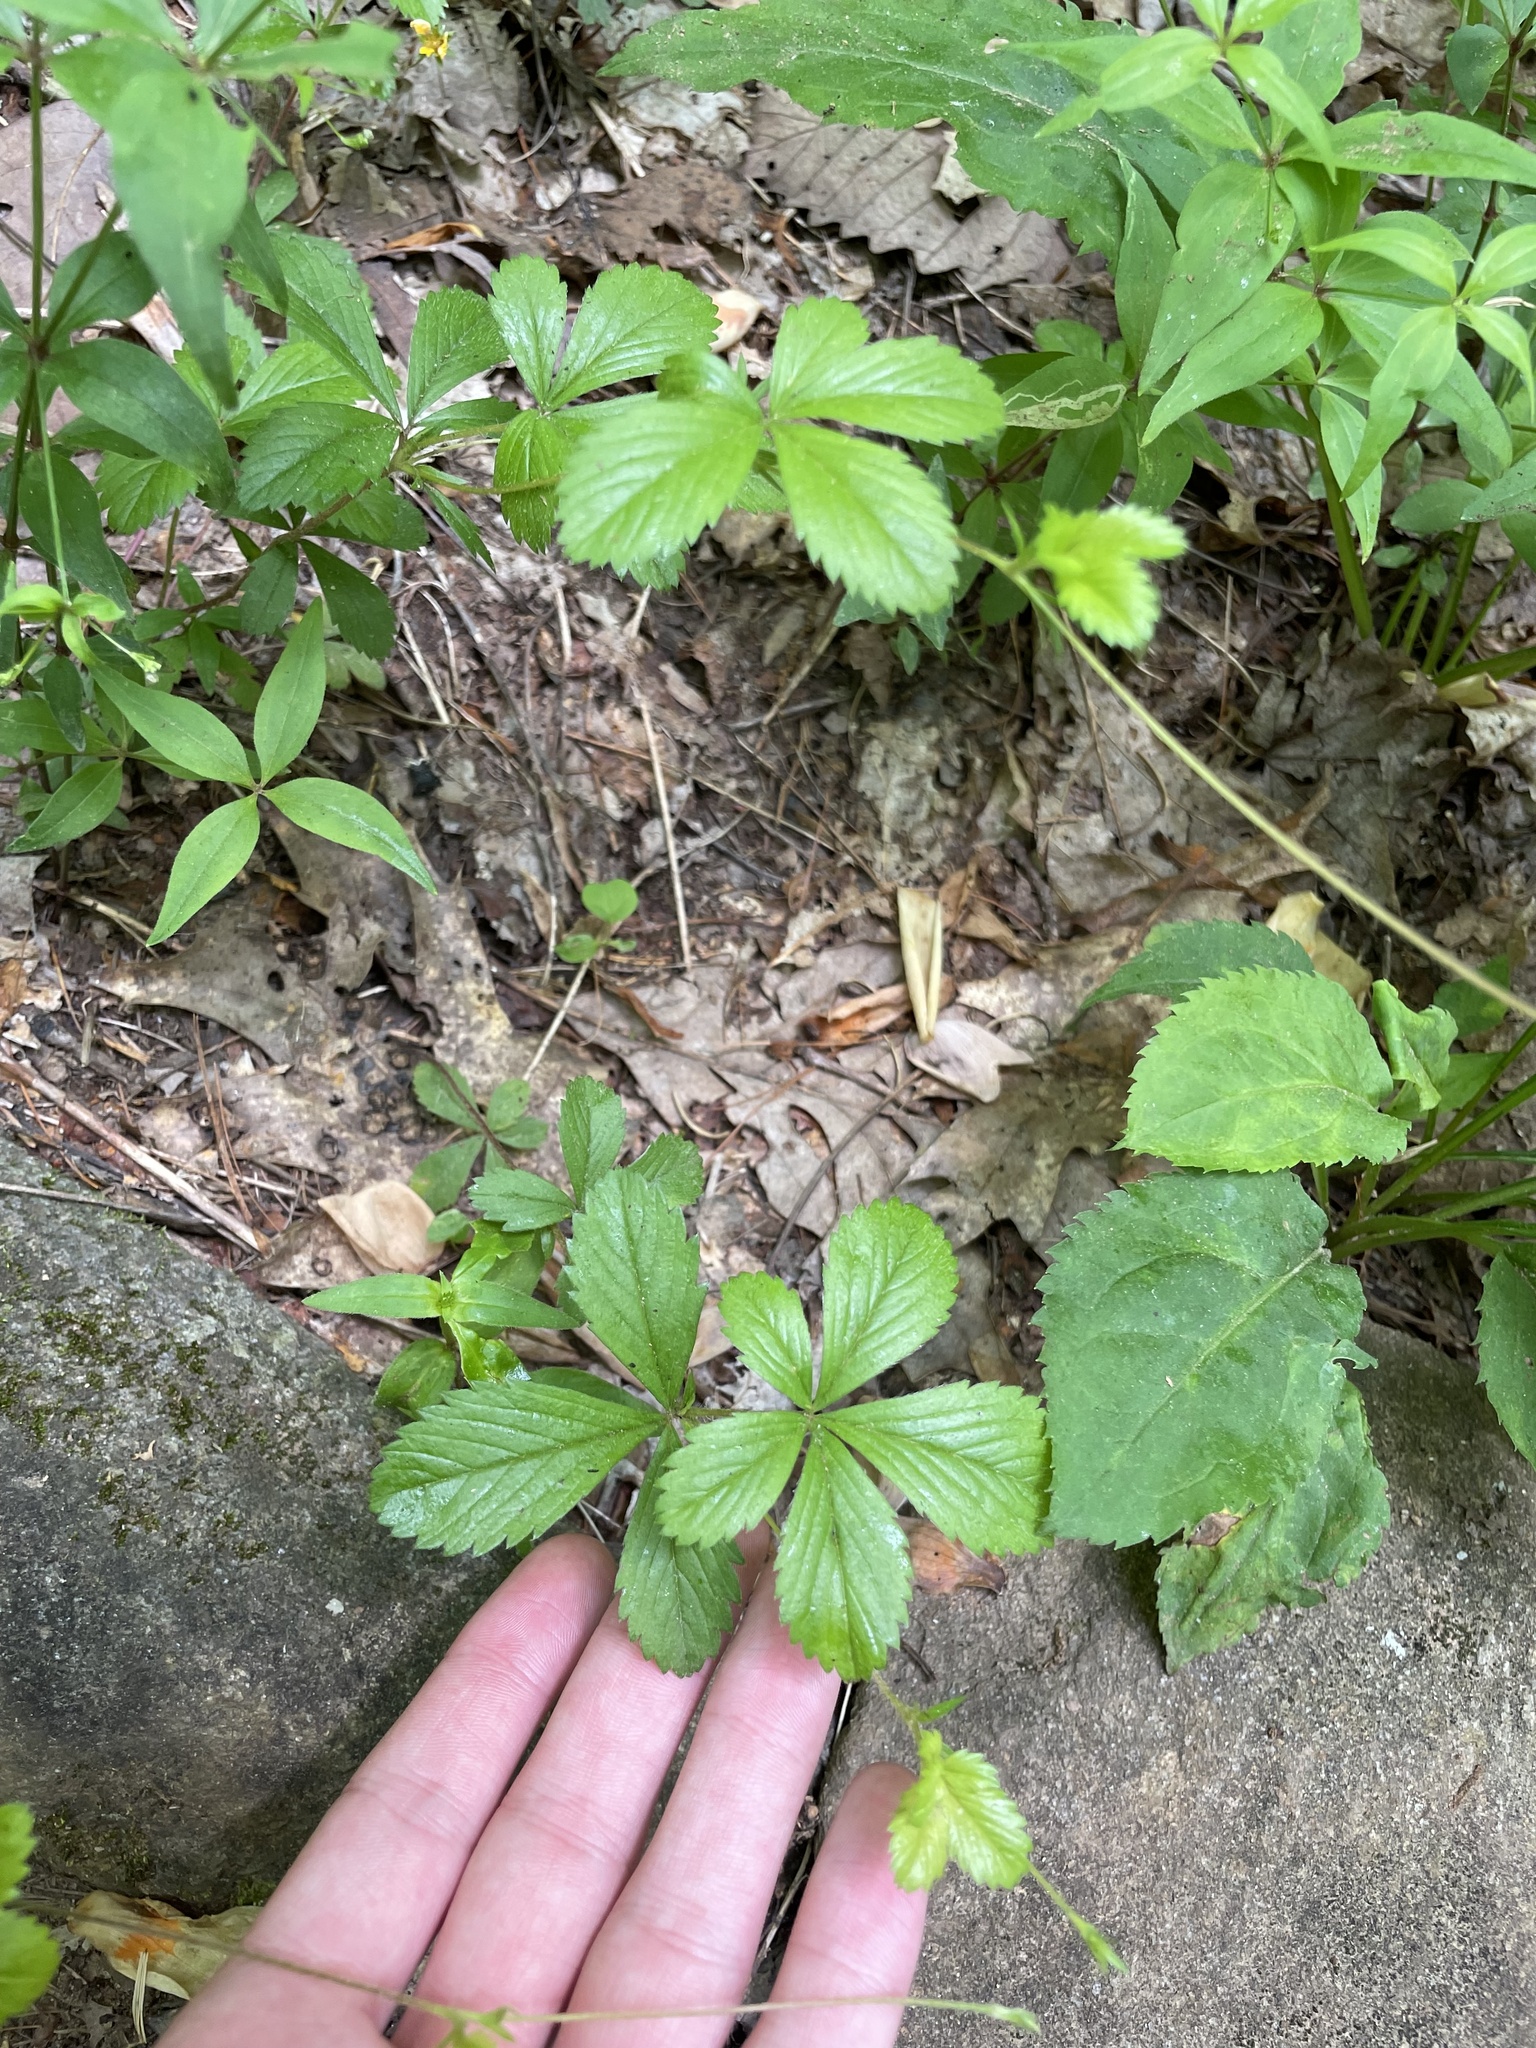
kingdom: Plantae
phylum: Tracheophyta
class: Magnoliopsida
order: Rosales
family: Rosaceae
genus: Potentilla
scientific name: Potentilla simplex
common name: Old field cinquefoil
